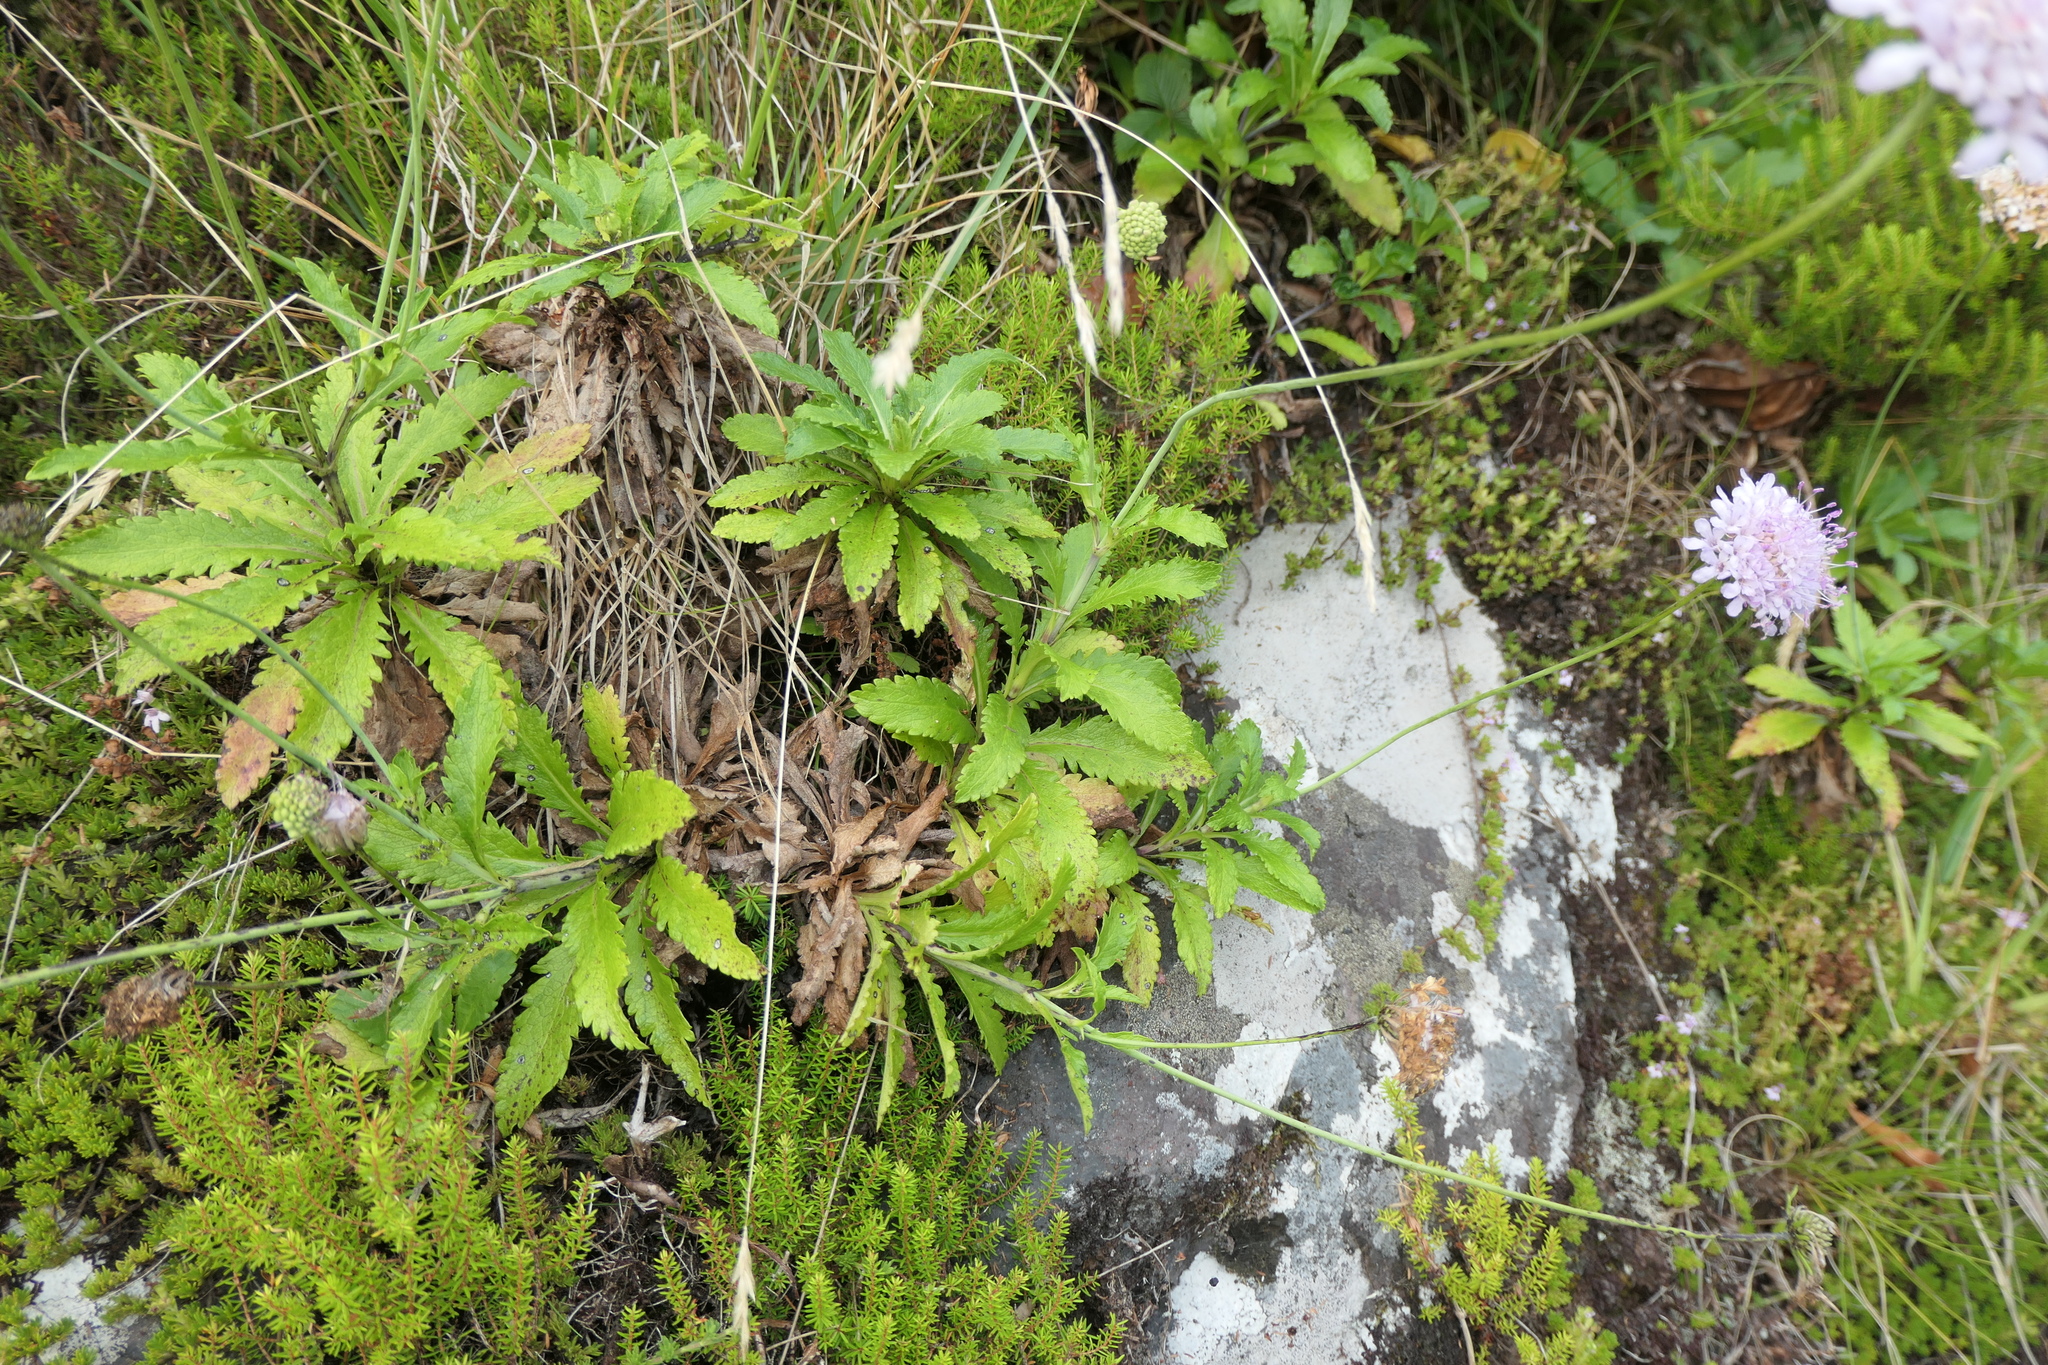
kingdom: Plantae
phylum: Tracheophyta
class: Magnoliopsida
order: Dipsacales
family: Caprifoliaceae
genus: Scabiosa
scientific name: Scabiosa nitens
